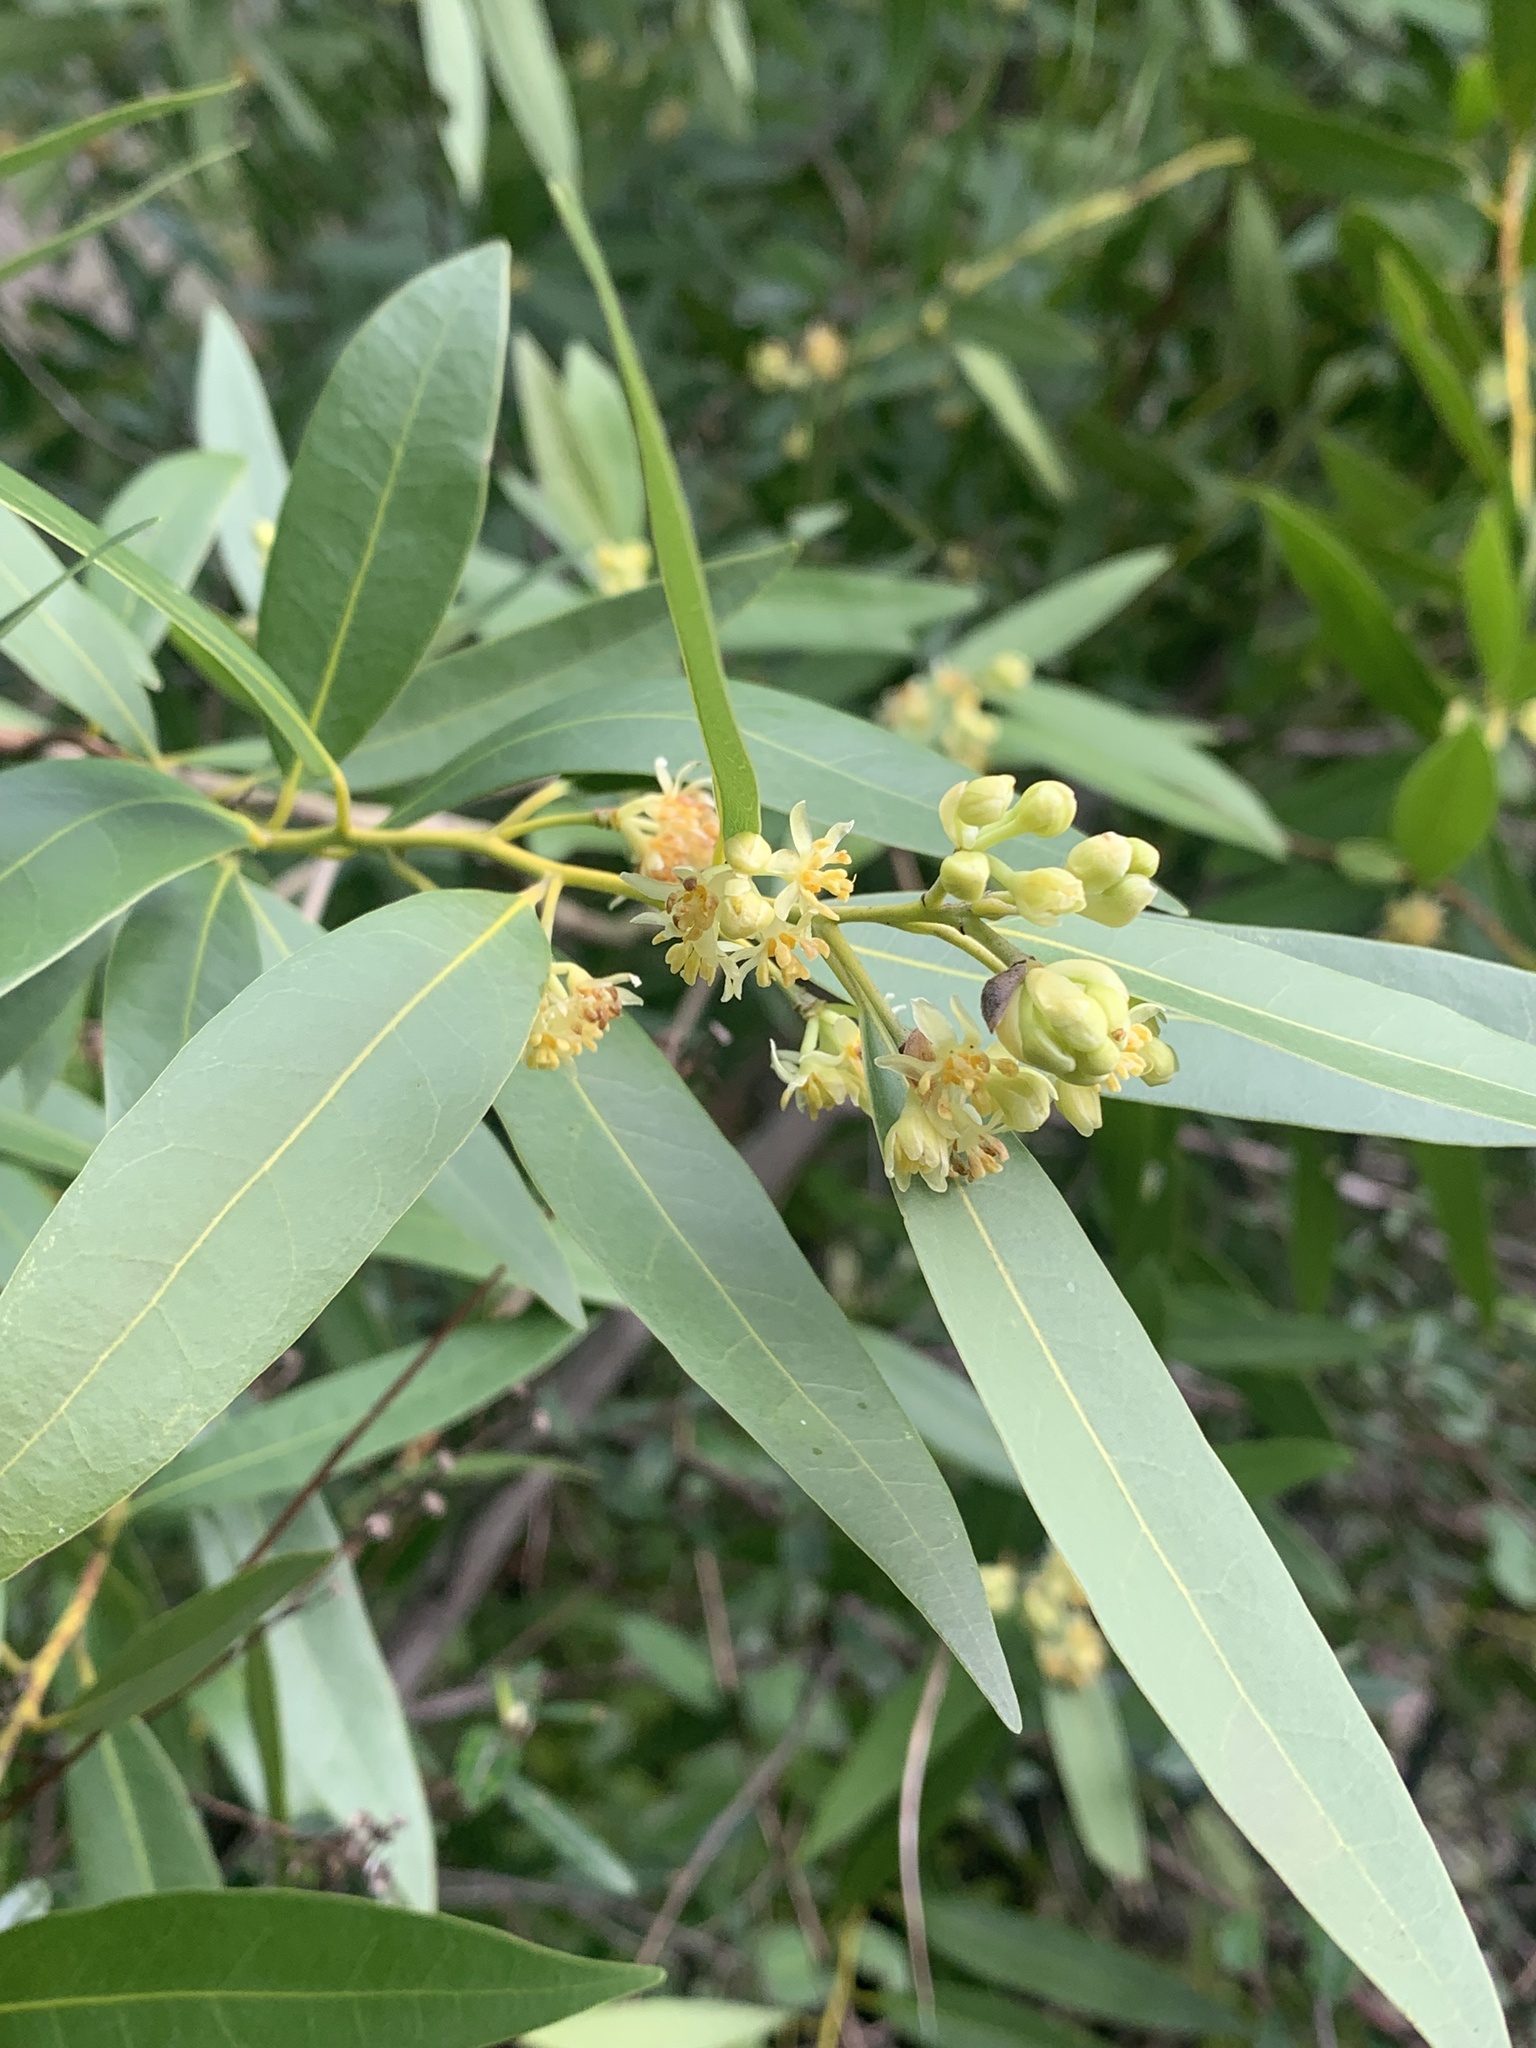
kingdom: Plantae
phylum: Tracheophyta
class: Magnoliopsida
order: Laurales
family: Lauraceae
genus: Umbellularia
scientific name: Umbellularia californica
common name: California bay
